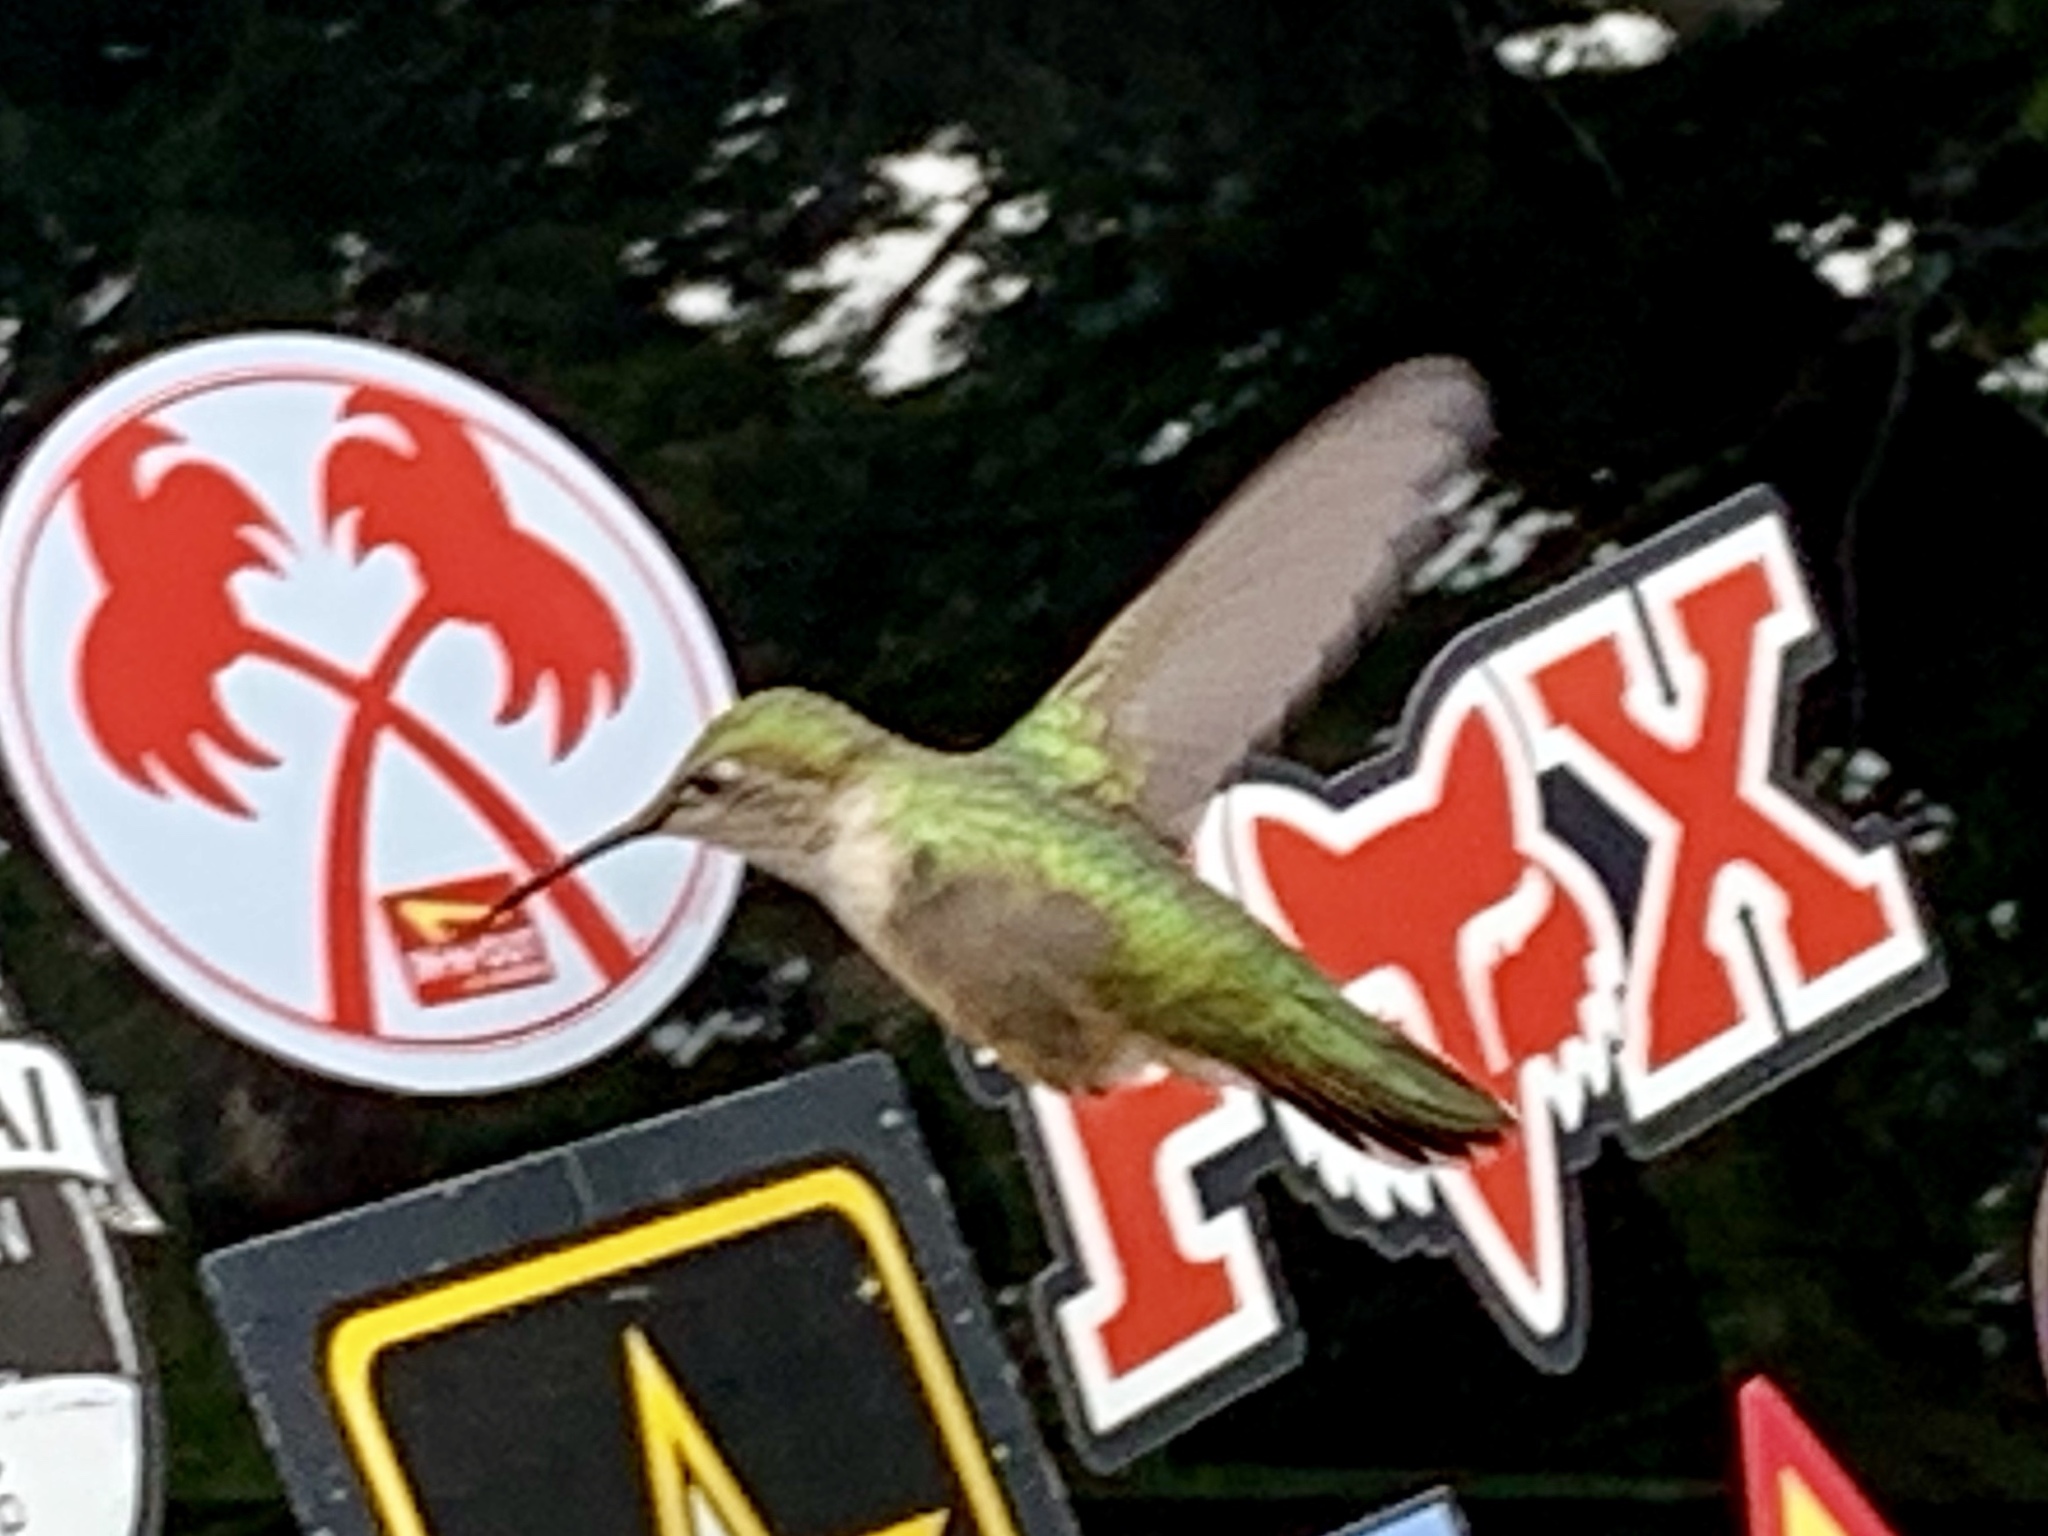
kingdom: Animalia
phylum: Chordata
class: Aves
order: Apodiformes
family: Trochilidae
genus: Selasphorus
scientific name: Selasphorus platycercus
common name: Broad-tailed hummingbird
